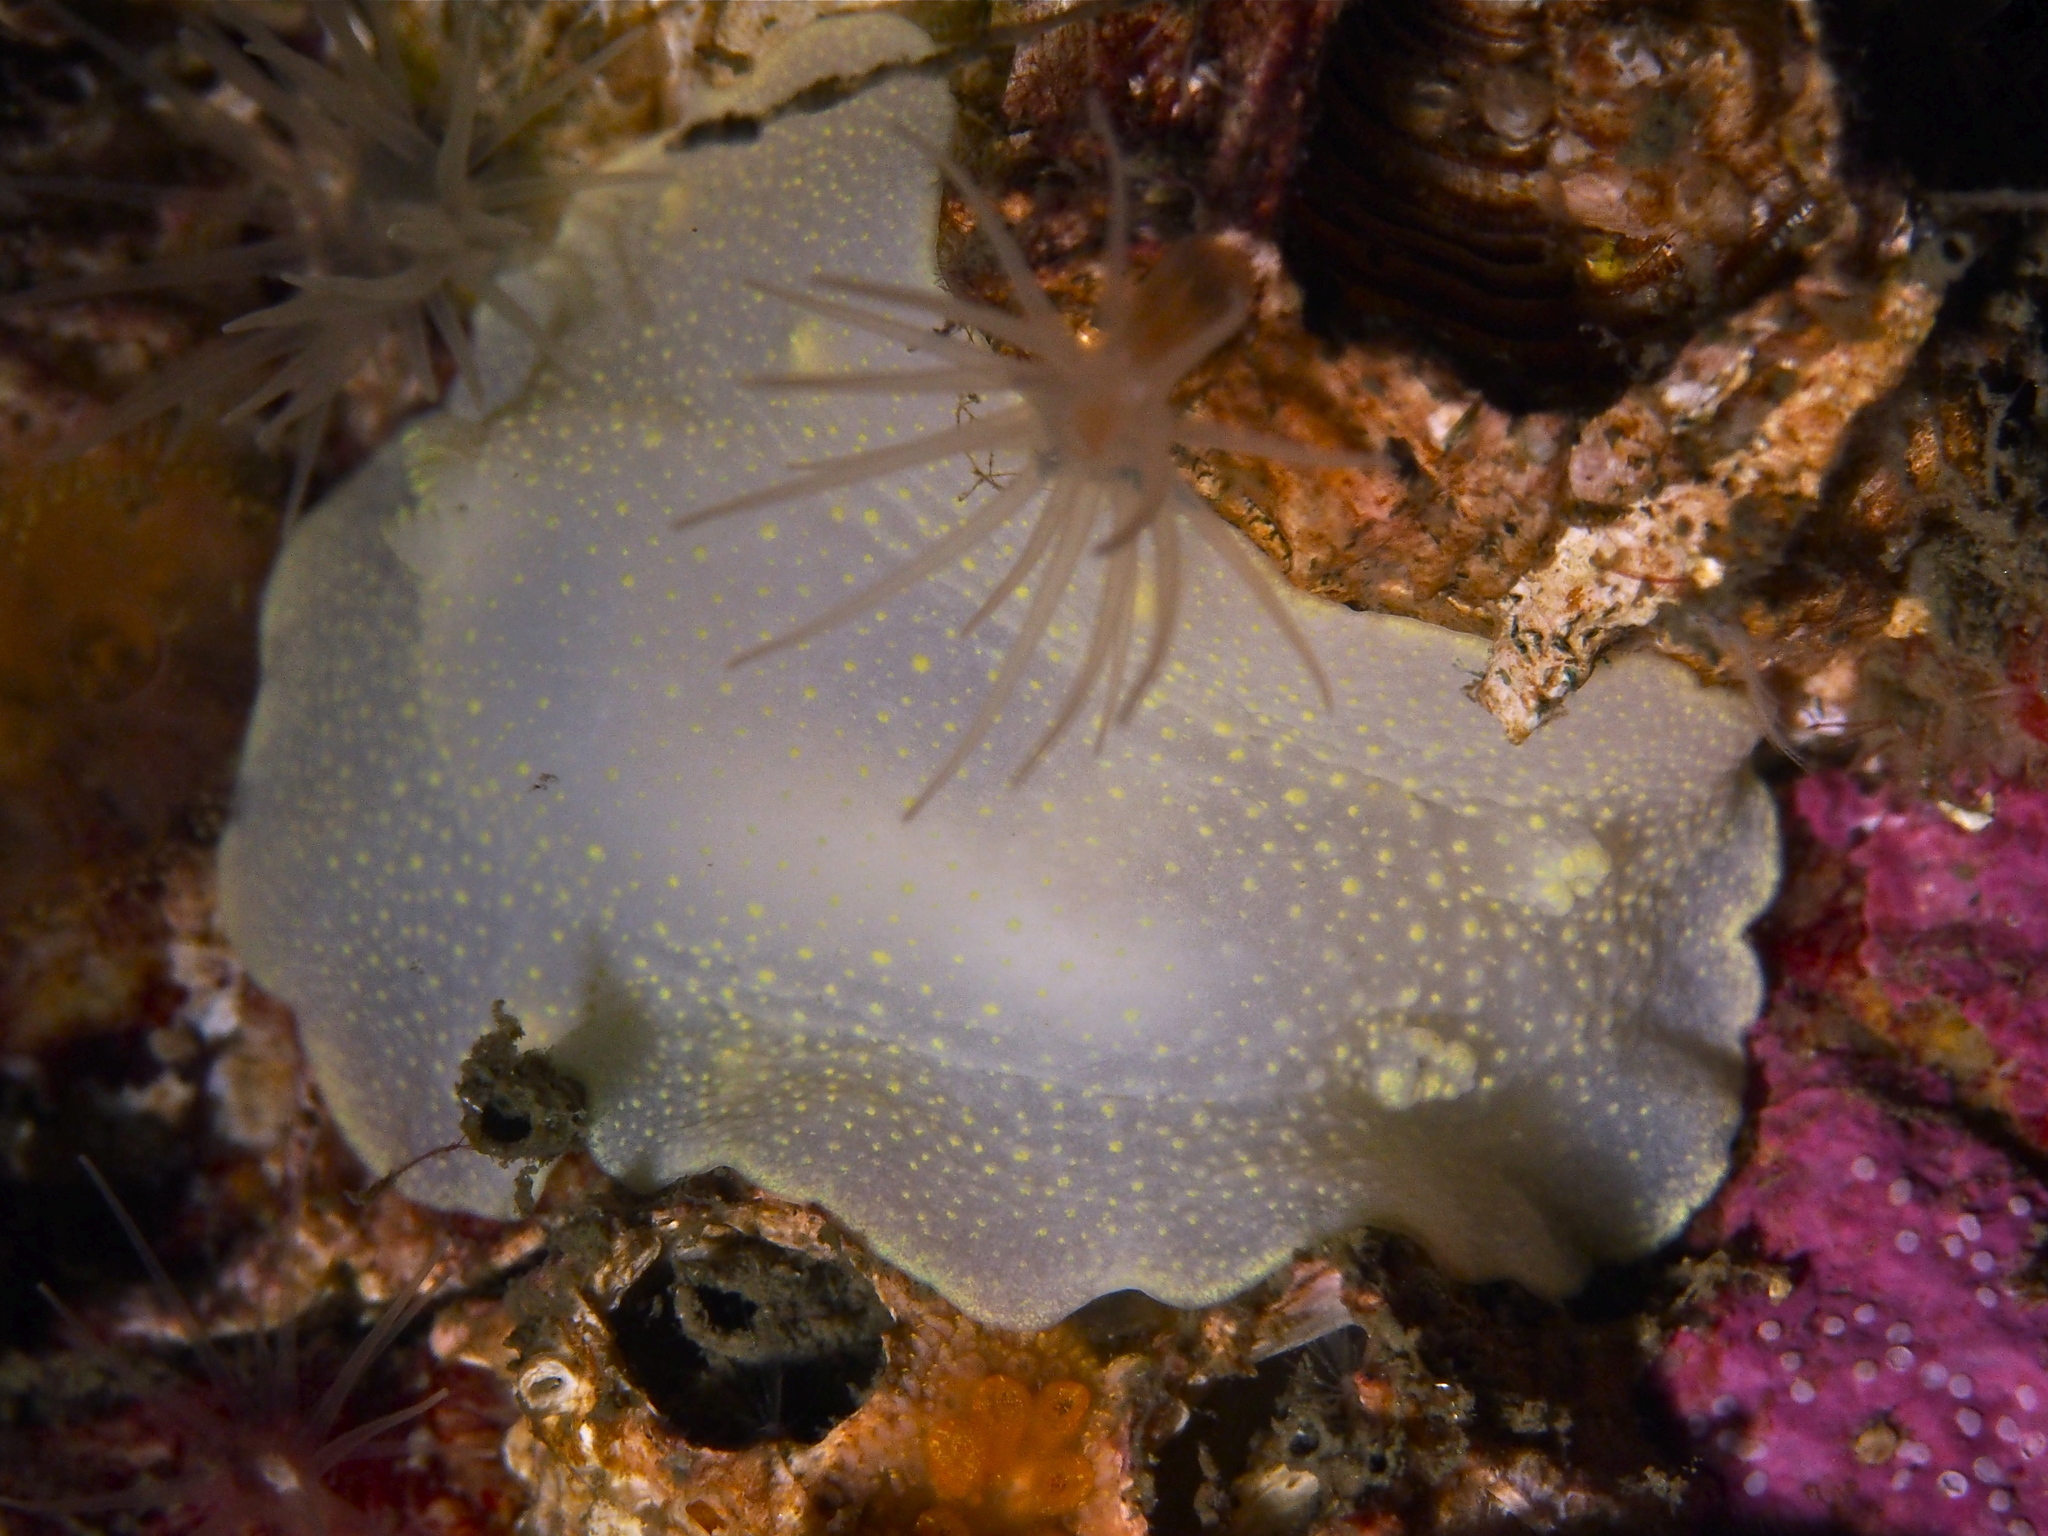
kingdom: Animalia
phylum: Mollusca
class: Gastropoda
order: Nudibranchia
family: Cadlinidae
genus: Cadlina
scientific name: Cadlina laevis
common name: White atlantic cadlina
